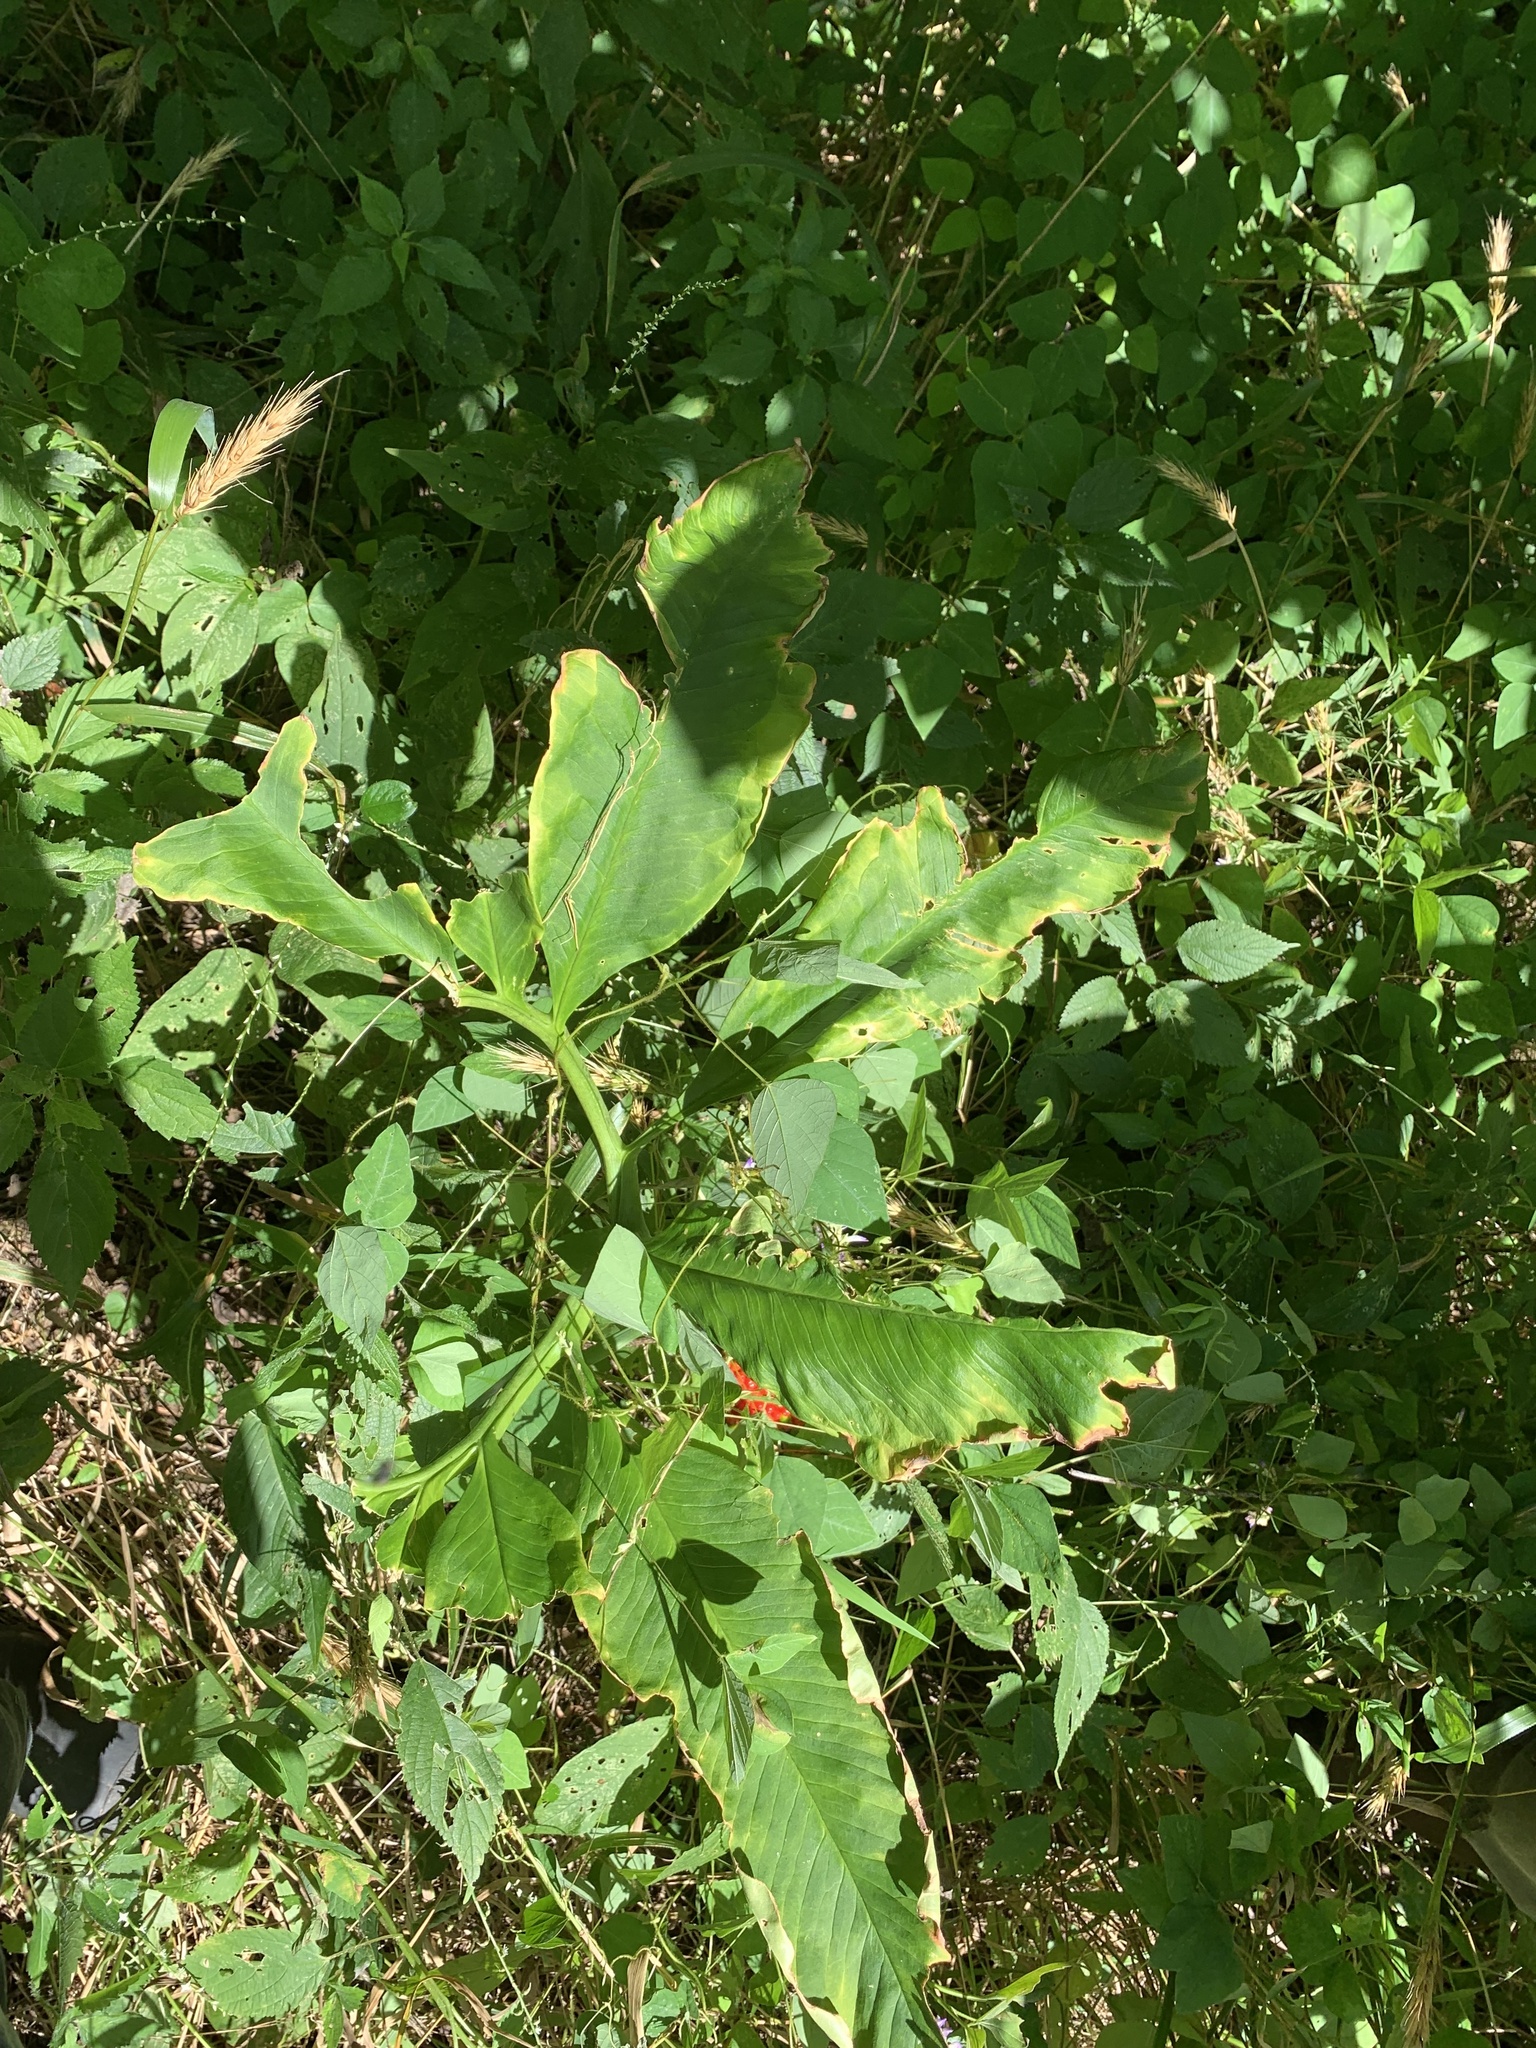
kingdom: Plantae
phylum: Tracheophyta
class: Liliopsida
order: Alismatales
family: Araceae
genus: Arisaema
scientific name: Arisaema dracontium
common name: Dragon-arum
